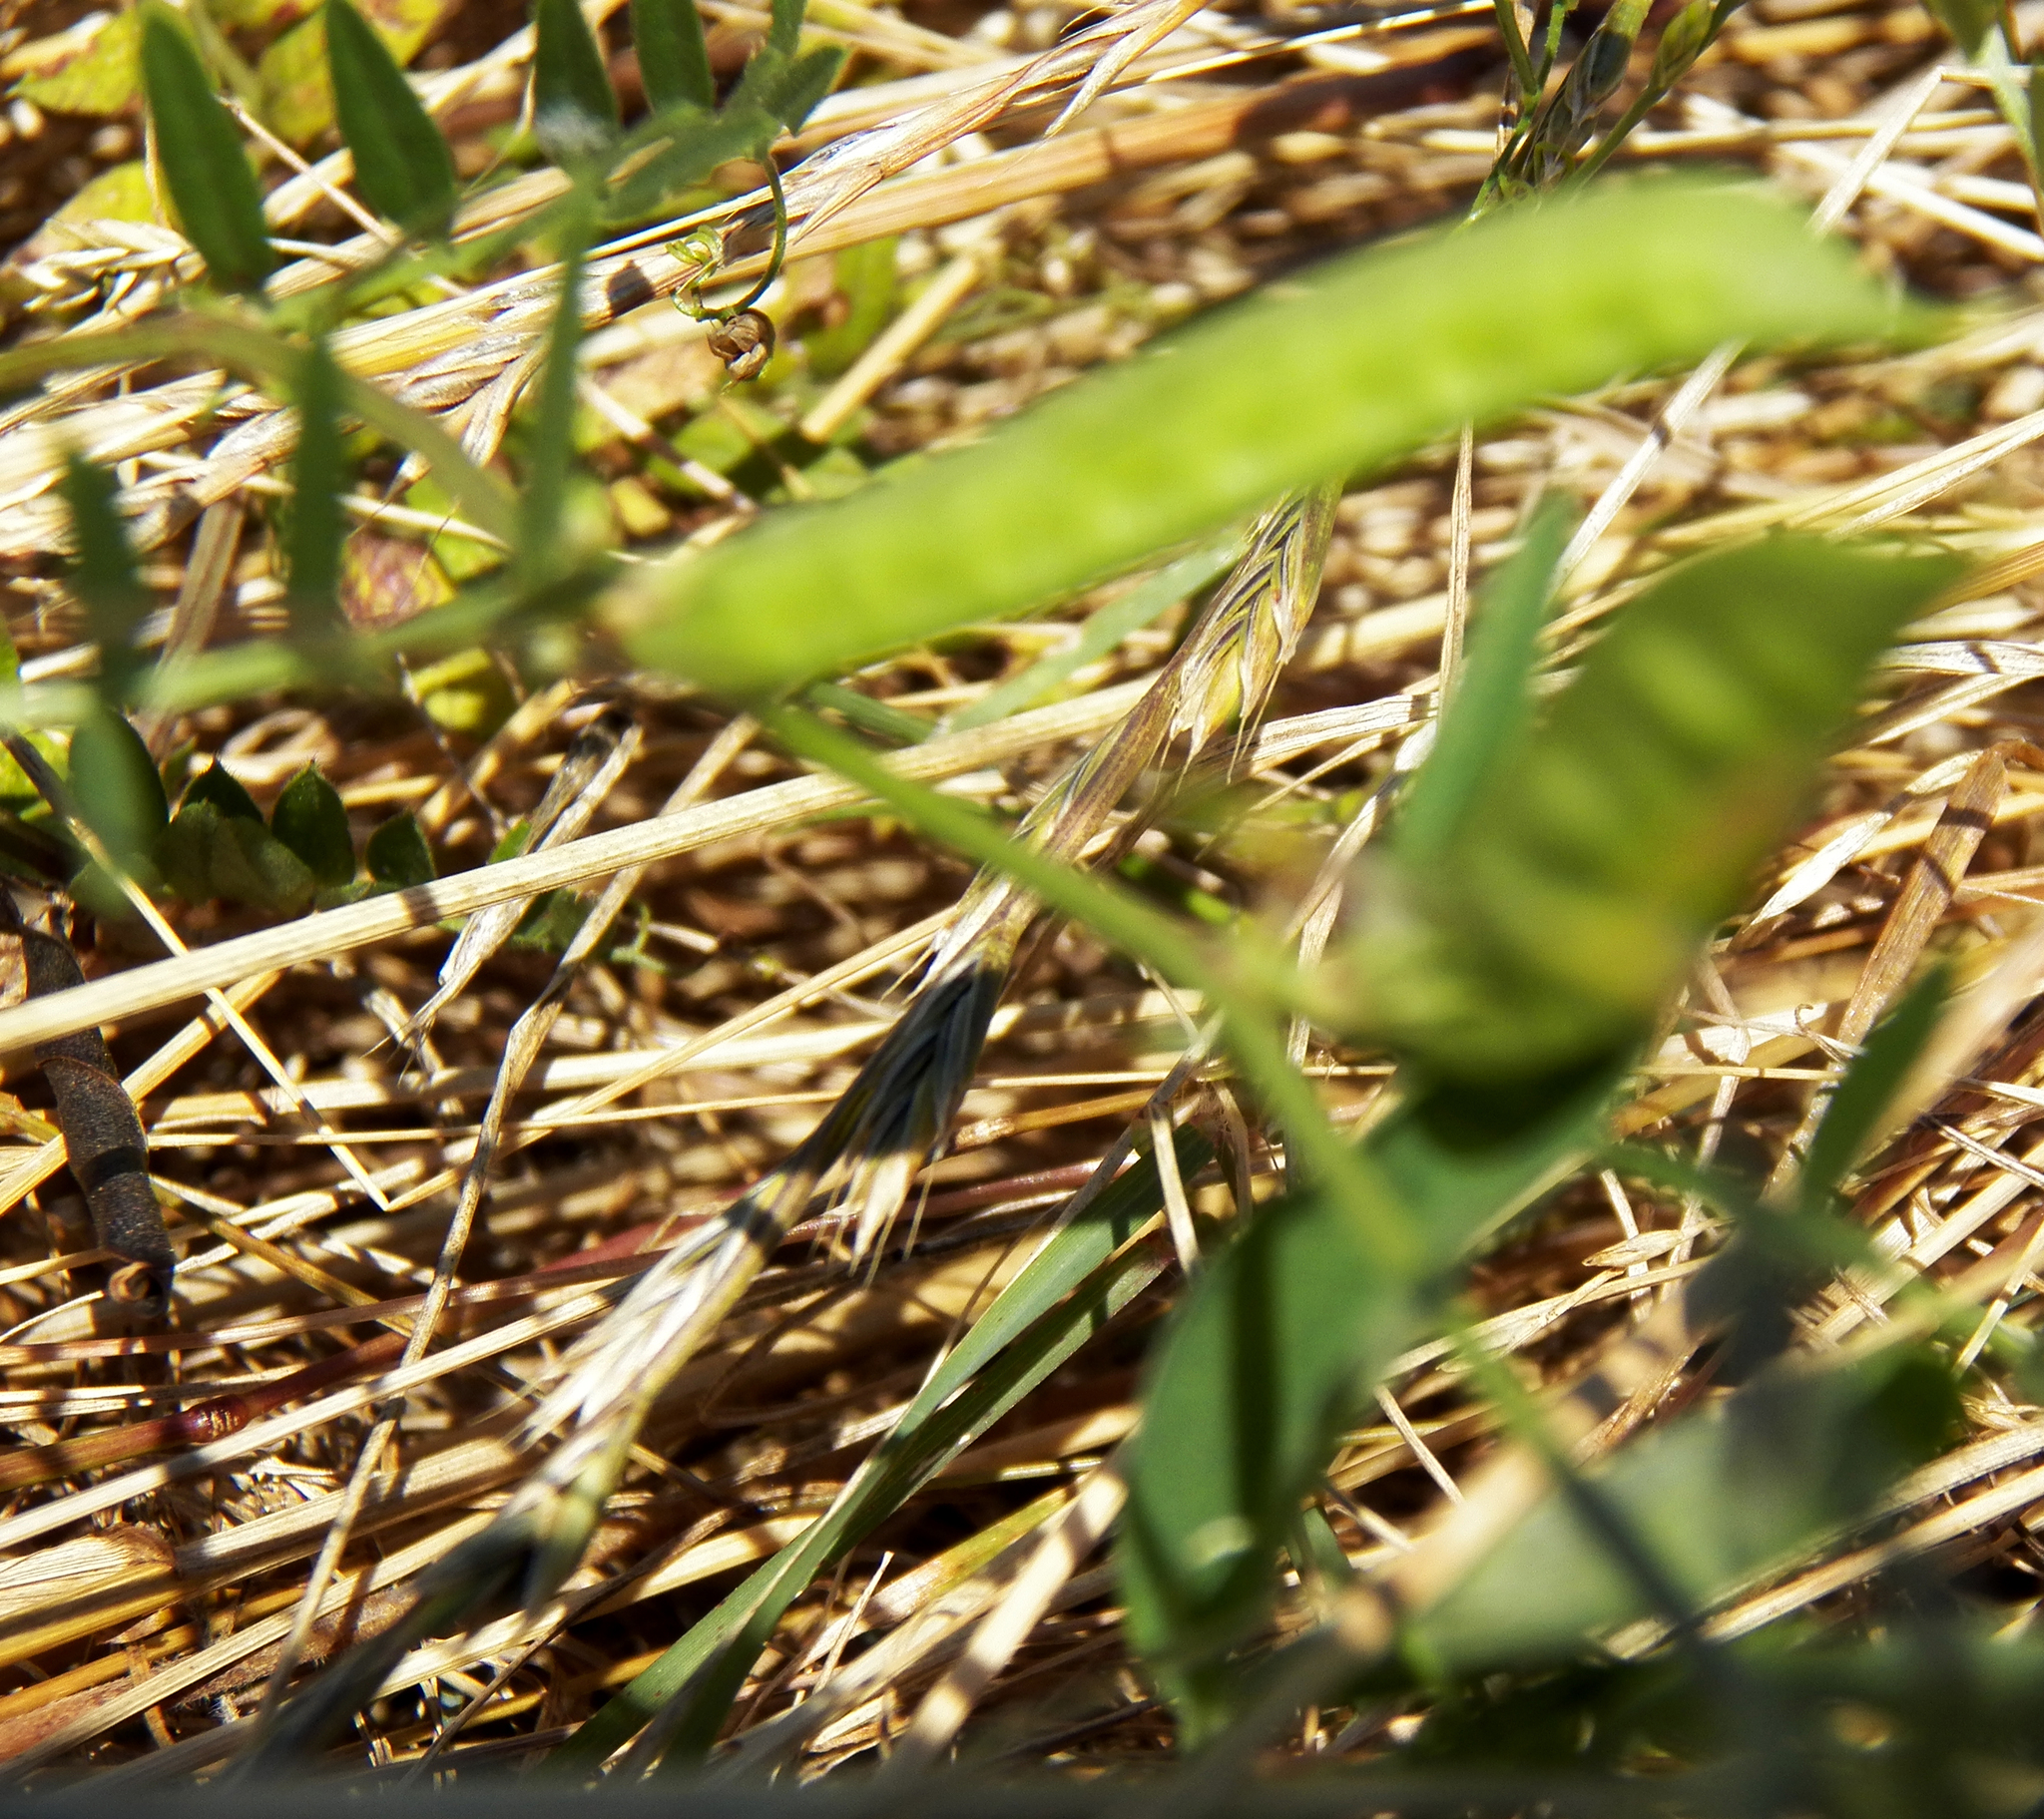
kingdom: Plantae
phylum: Tracheophyta
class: Magnoliopsida
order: Fabales
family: Fabaceae
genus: Lathyrus
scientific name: Lathyrus hirsutus
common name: Hairy vetchling
